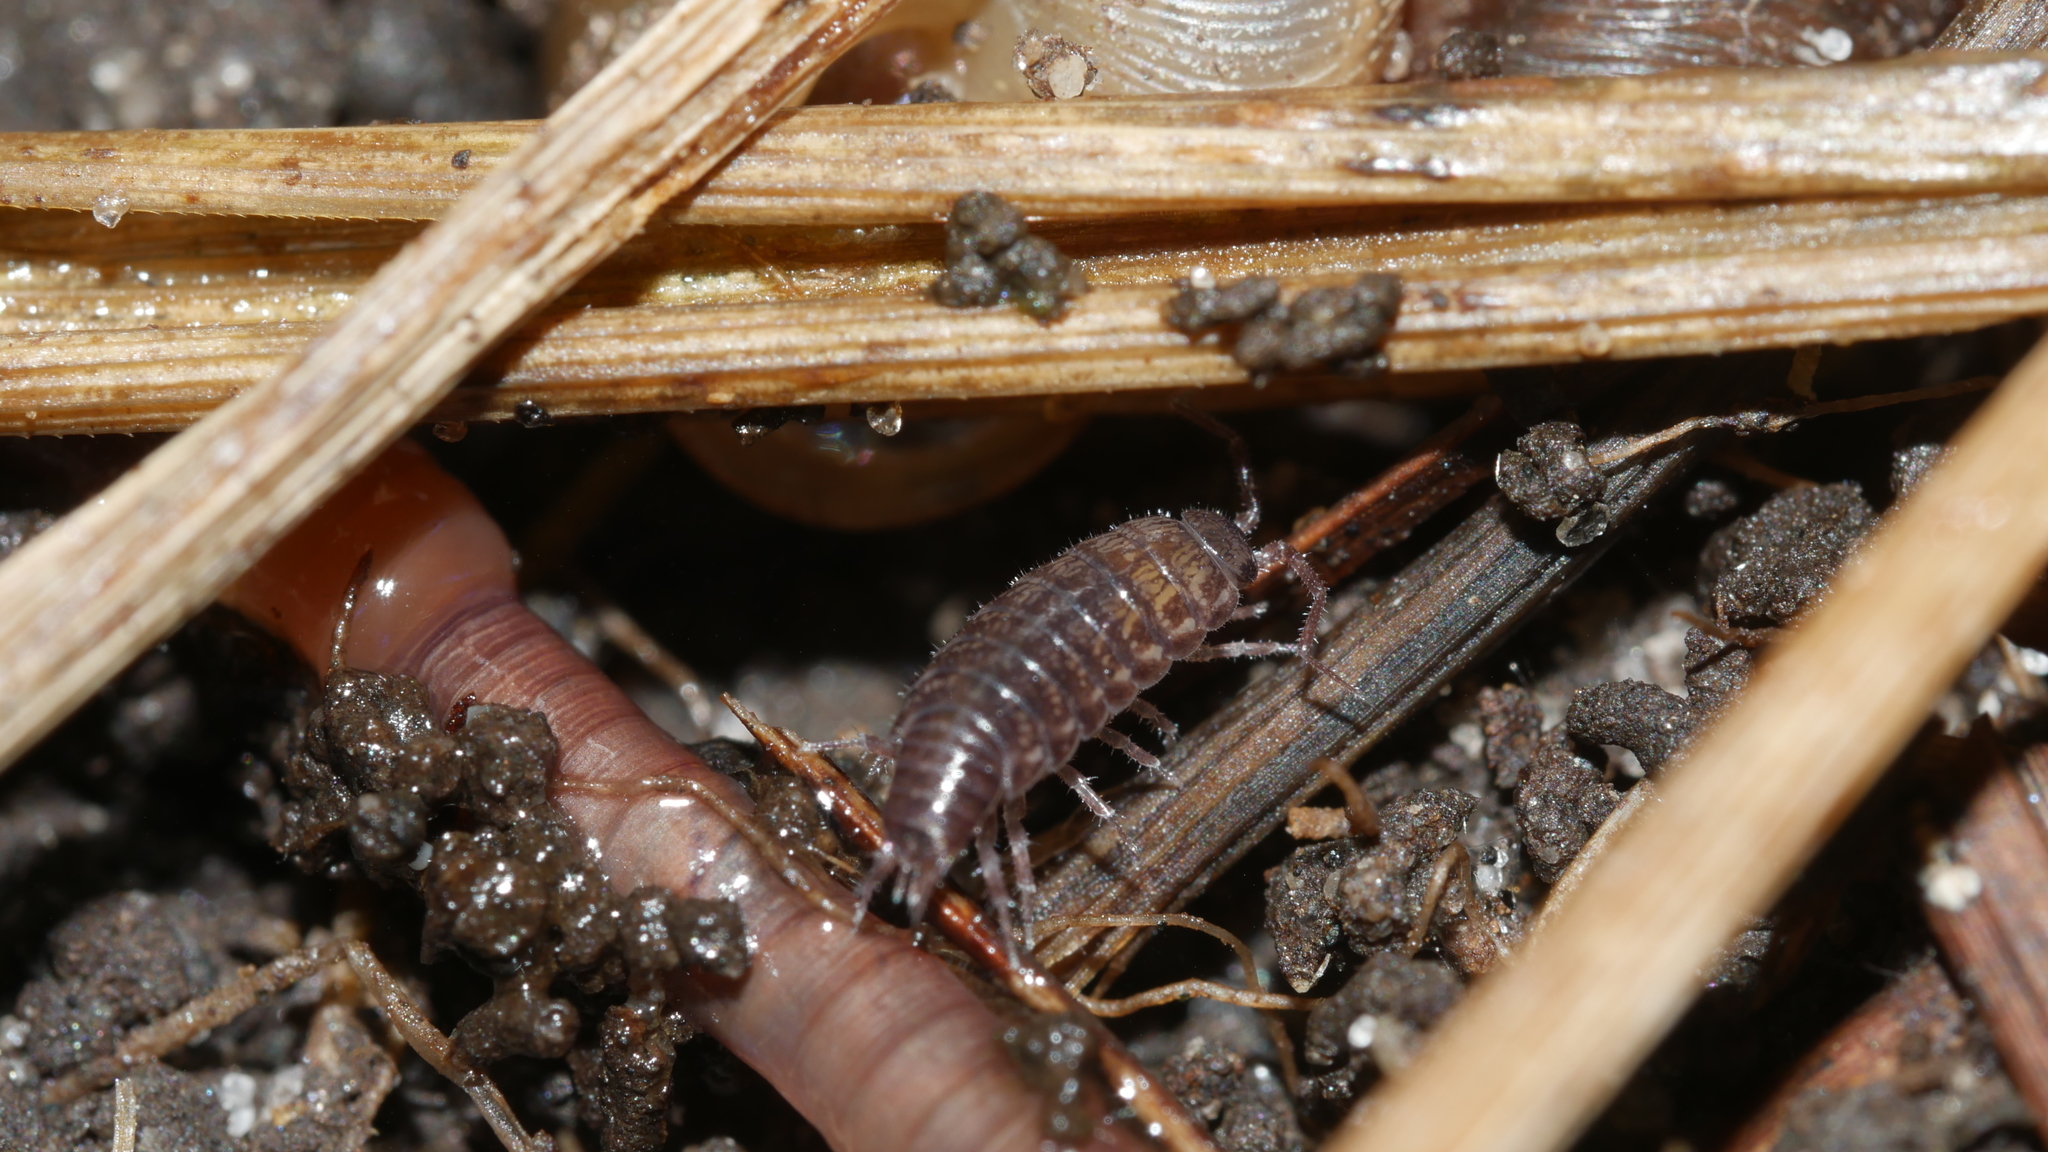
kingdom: Animalia
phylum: Arthropoda
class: Malacostraca
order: Isopoda
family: Philosciidae
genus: Chaetophiloscia
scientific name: Chaetophiloscia sicula
